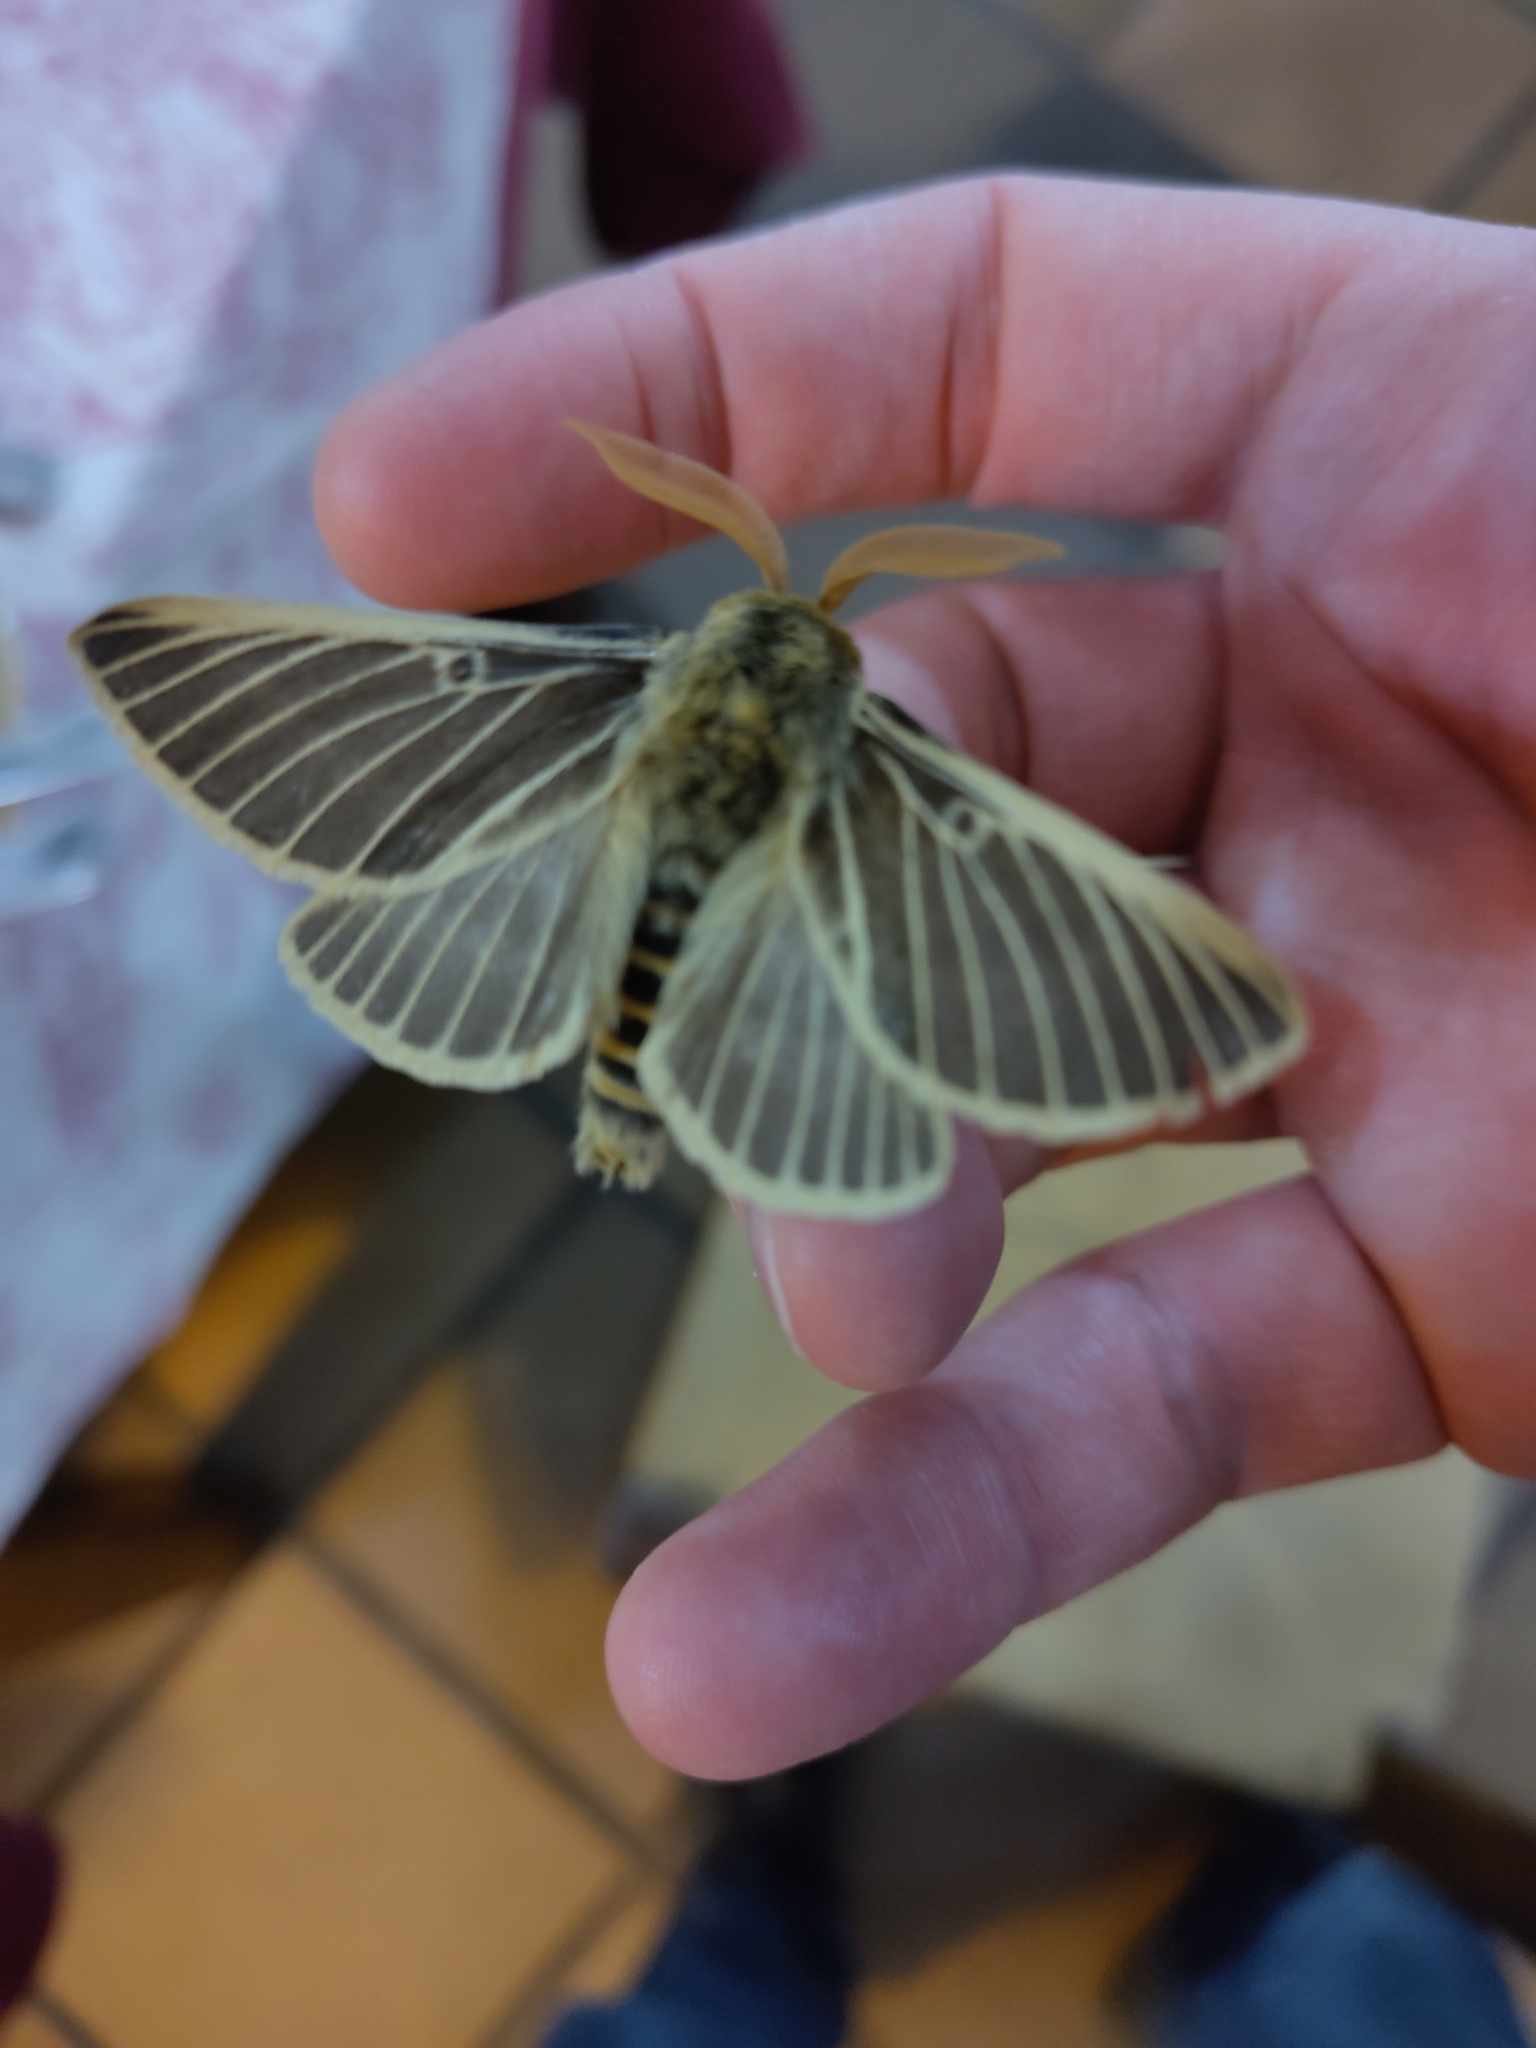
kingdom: Animalia
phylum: Arthropoda
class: Insecta
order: Lepidoptera
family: Brahmaeidae
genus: Lemonia
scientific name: Lemonia philopalus
